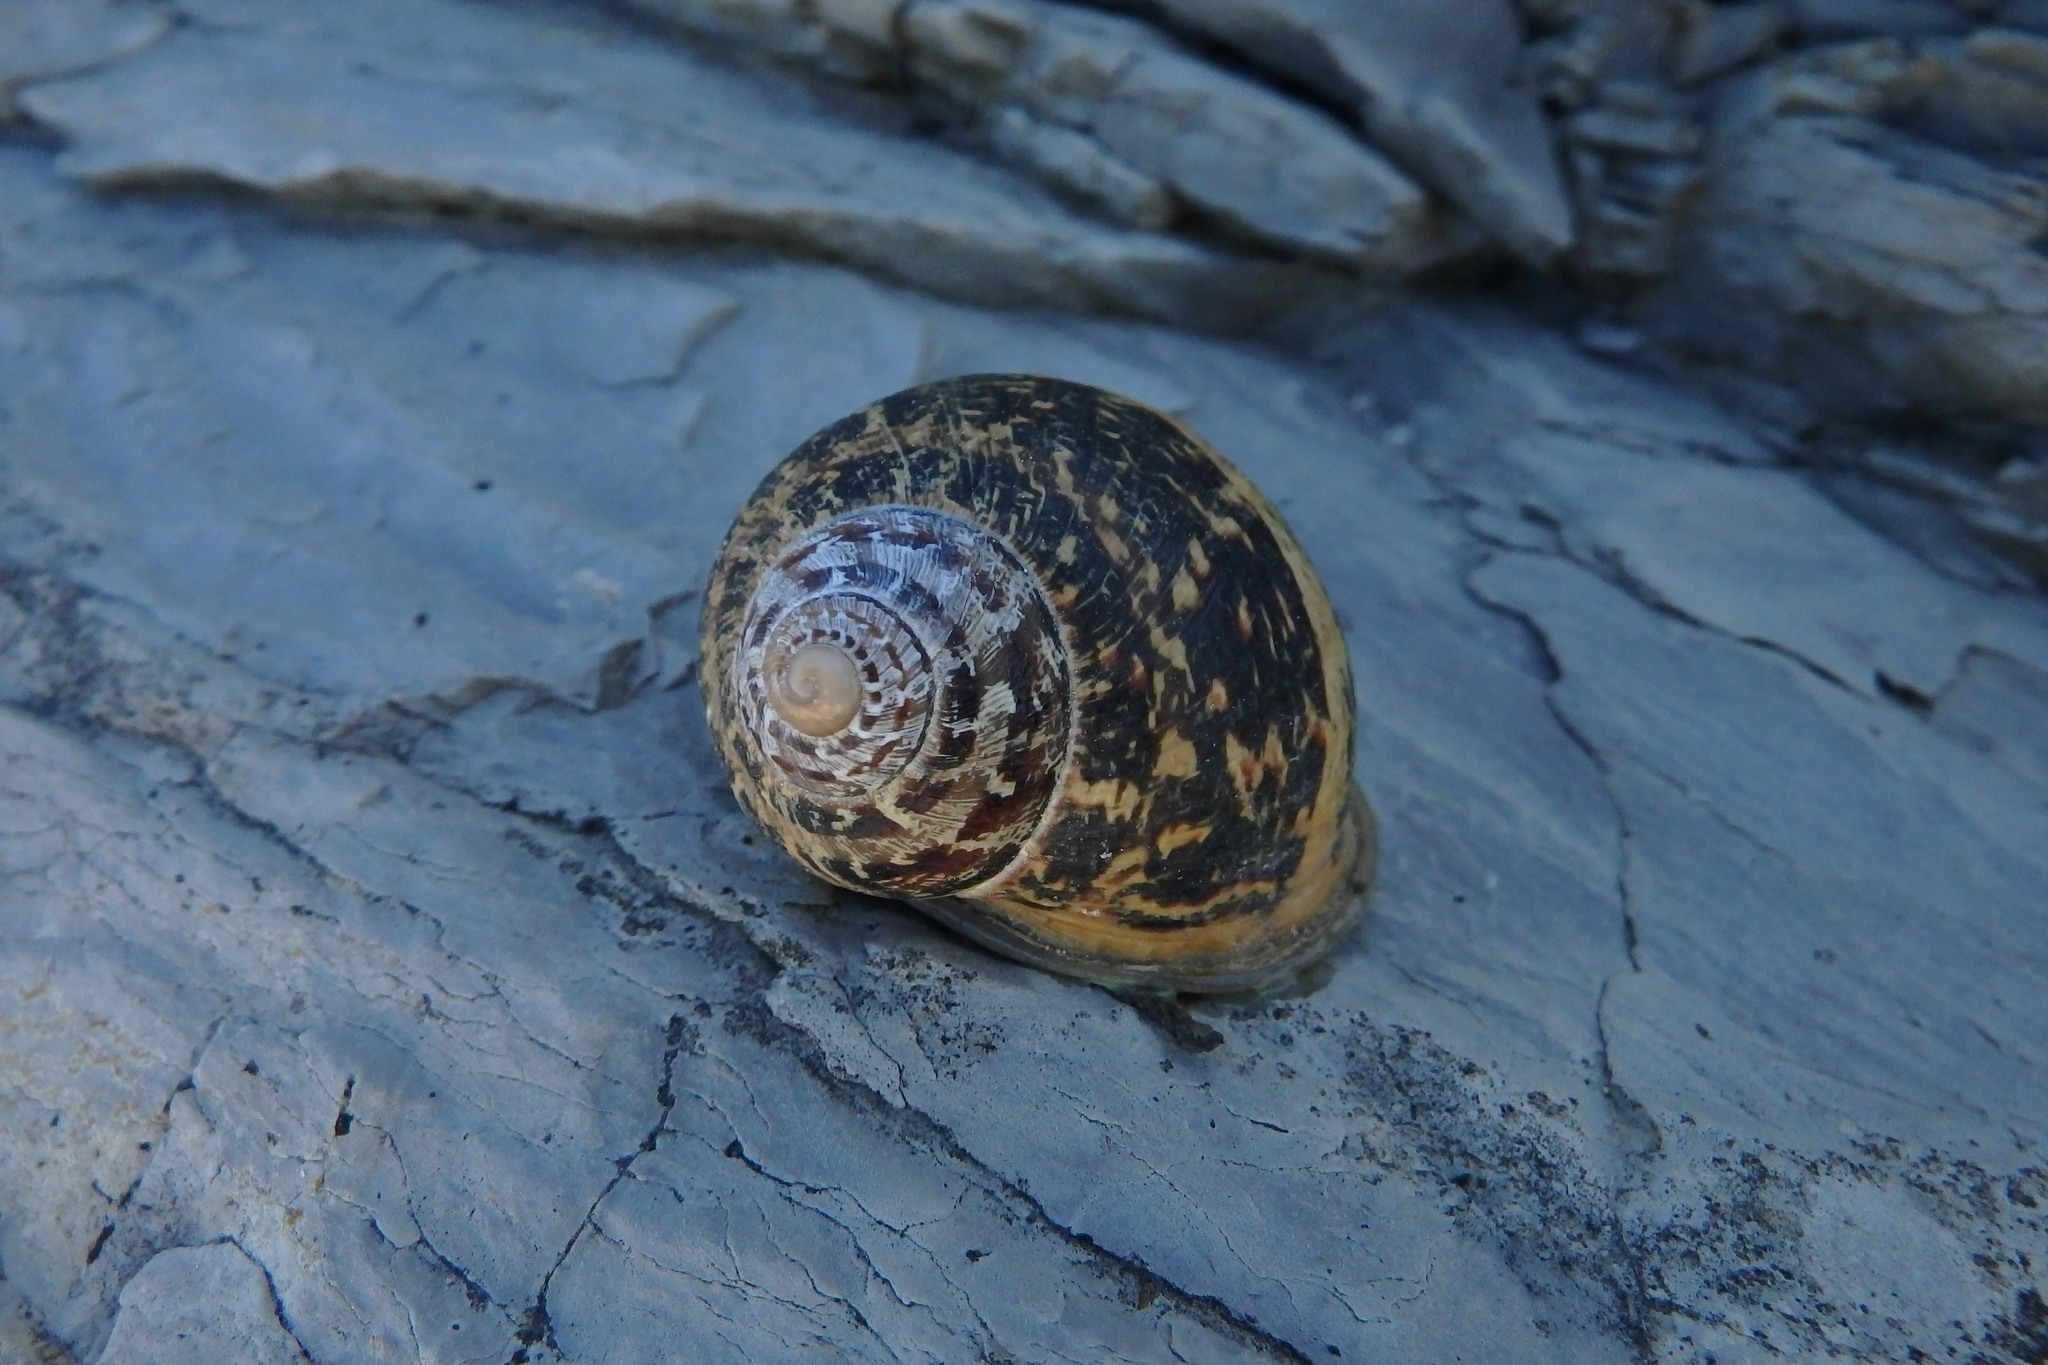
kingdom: Animalia
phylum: Mollusca
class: Gastropoda
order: Stylommatophora
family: Helicidae
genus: Cornu
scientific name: Cornu aspersum
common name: Brown garden snail
